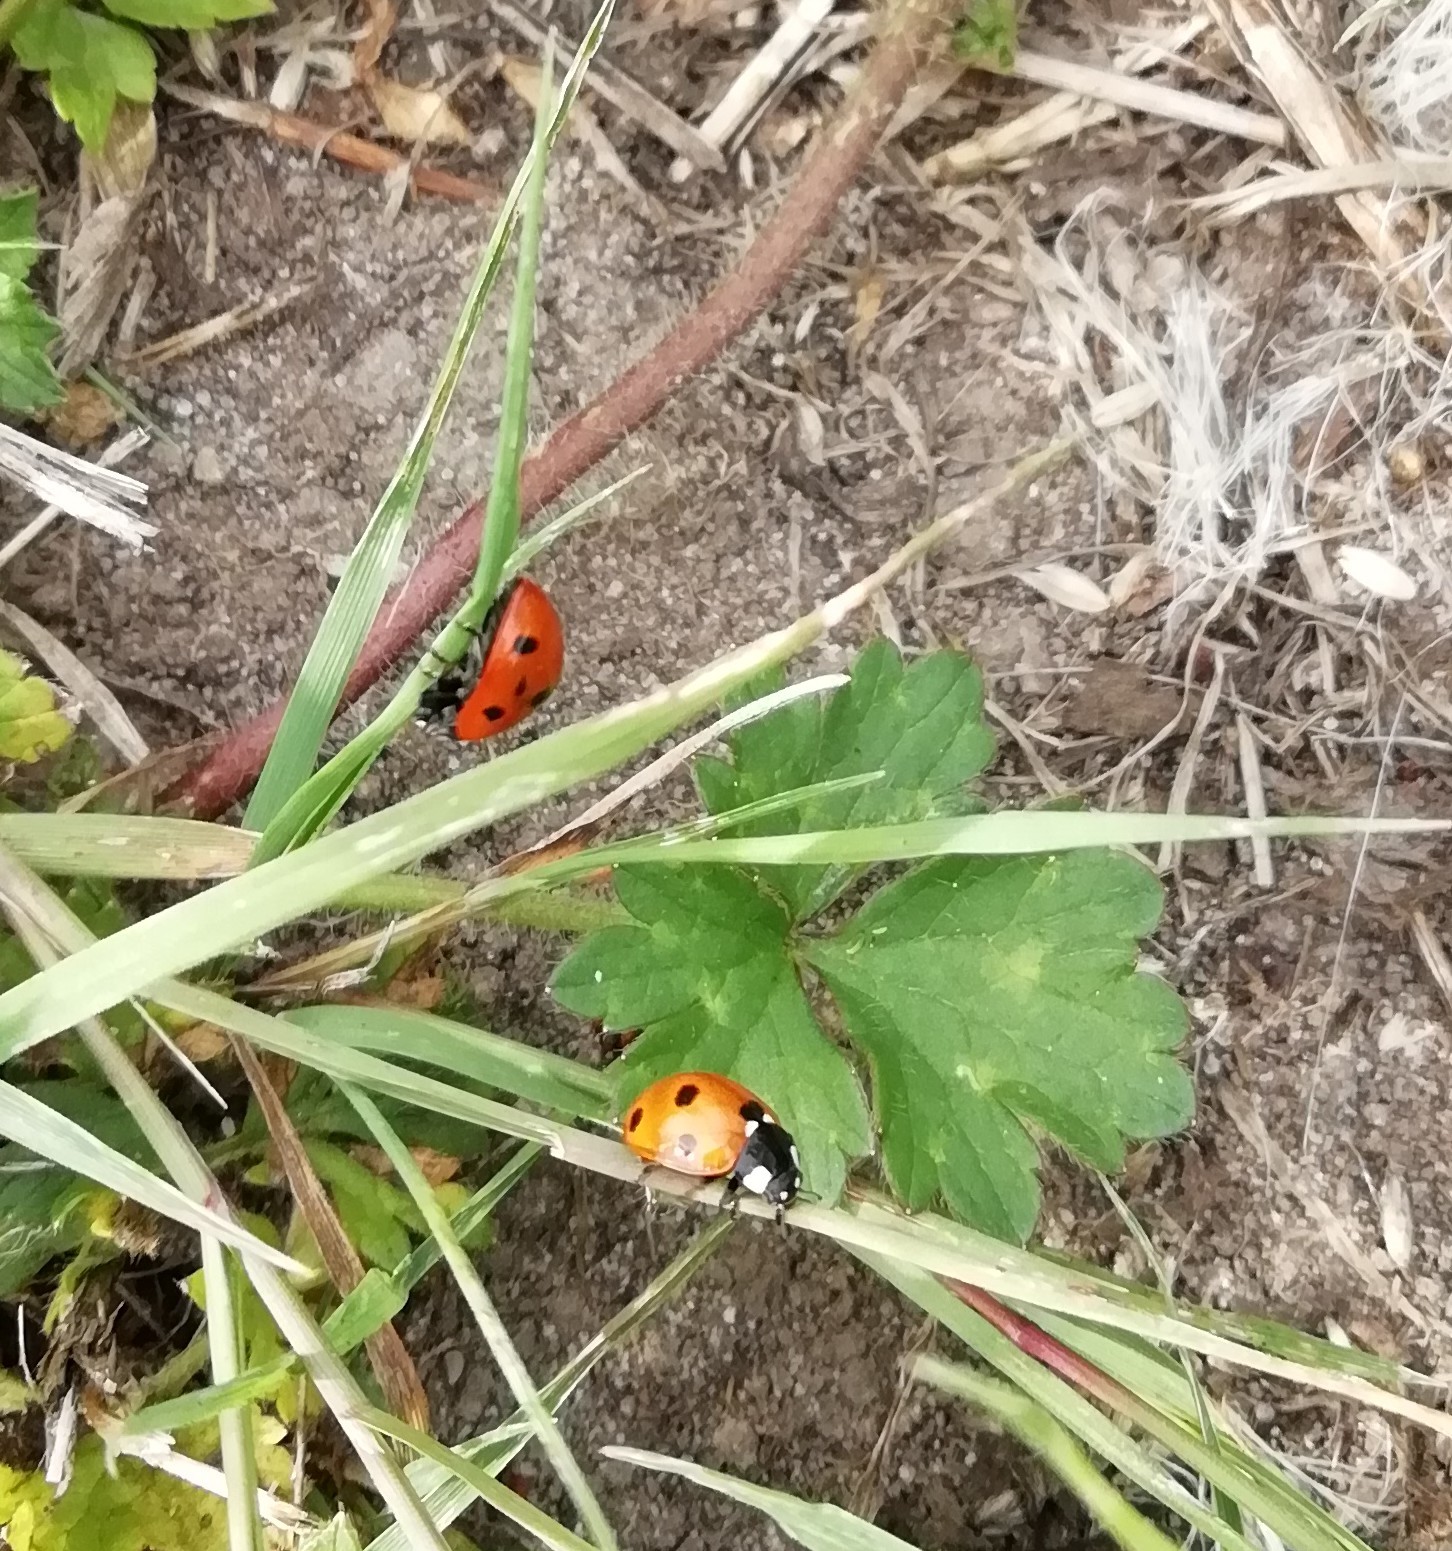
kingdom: Animalia
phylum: Arthropoda
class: Insecta
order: Coleoptera
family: Coccinellidae
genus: Coccinella
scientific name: Coccinella septempunctata
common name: Sevenspotted lady beetle
